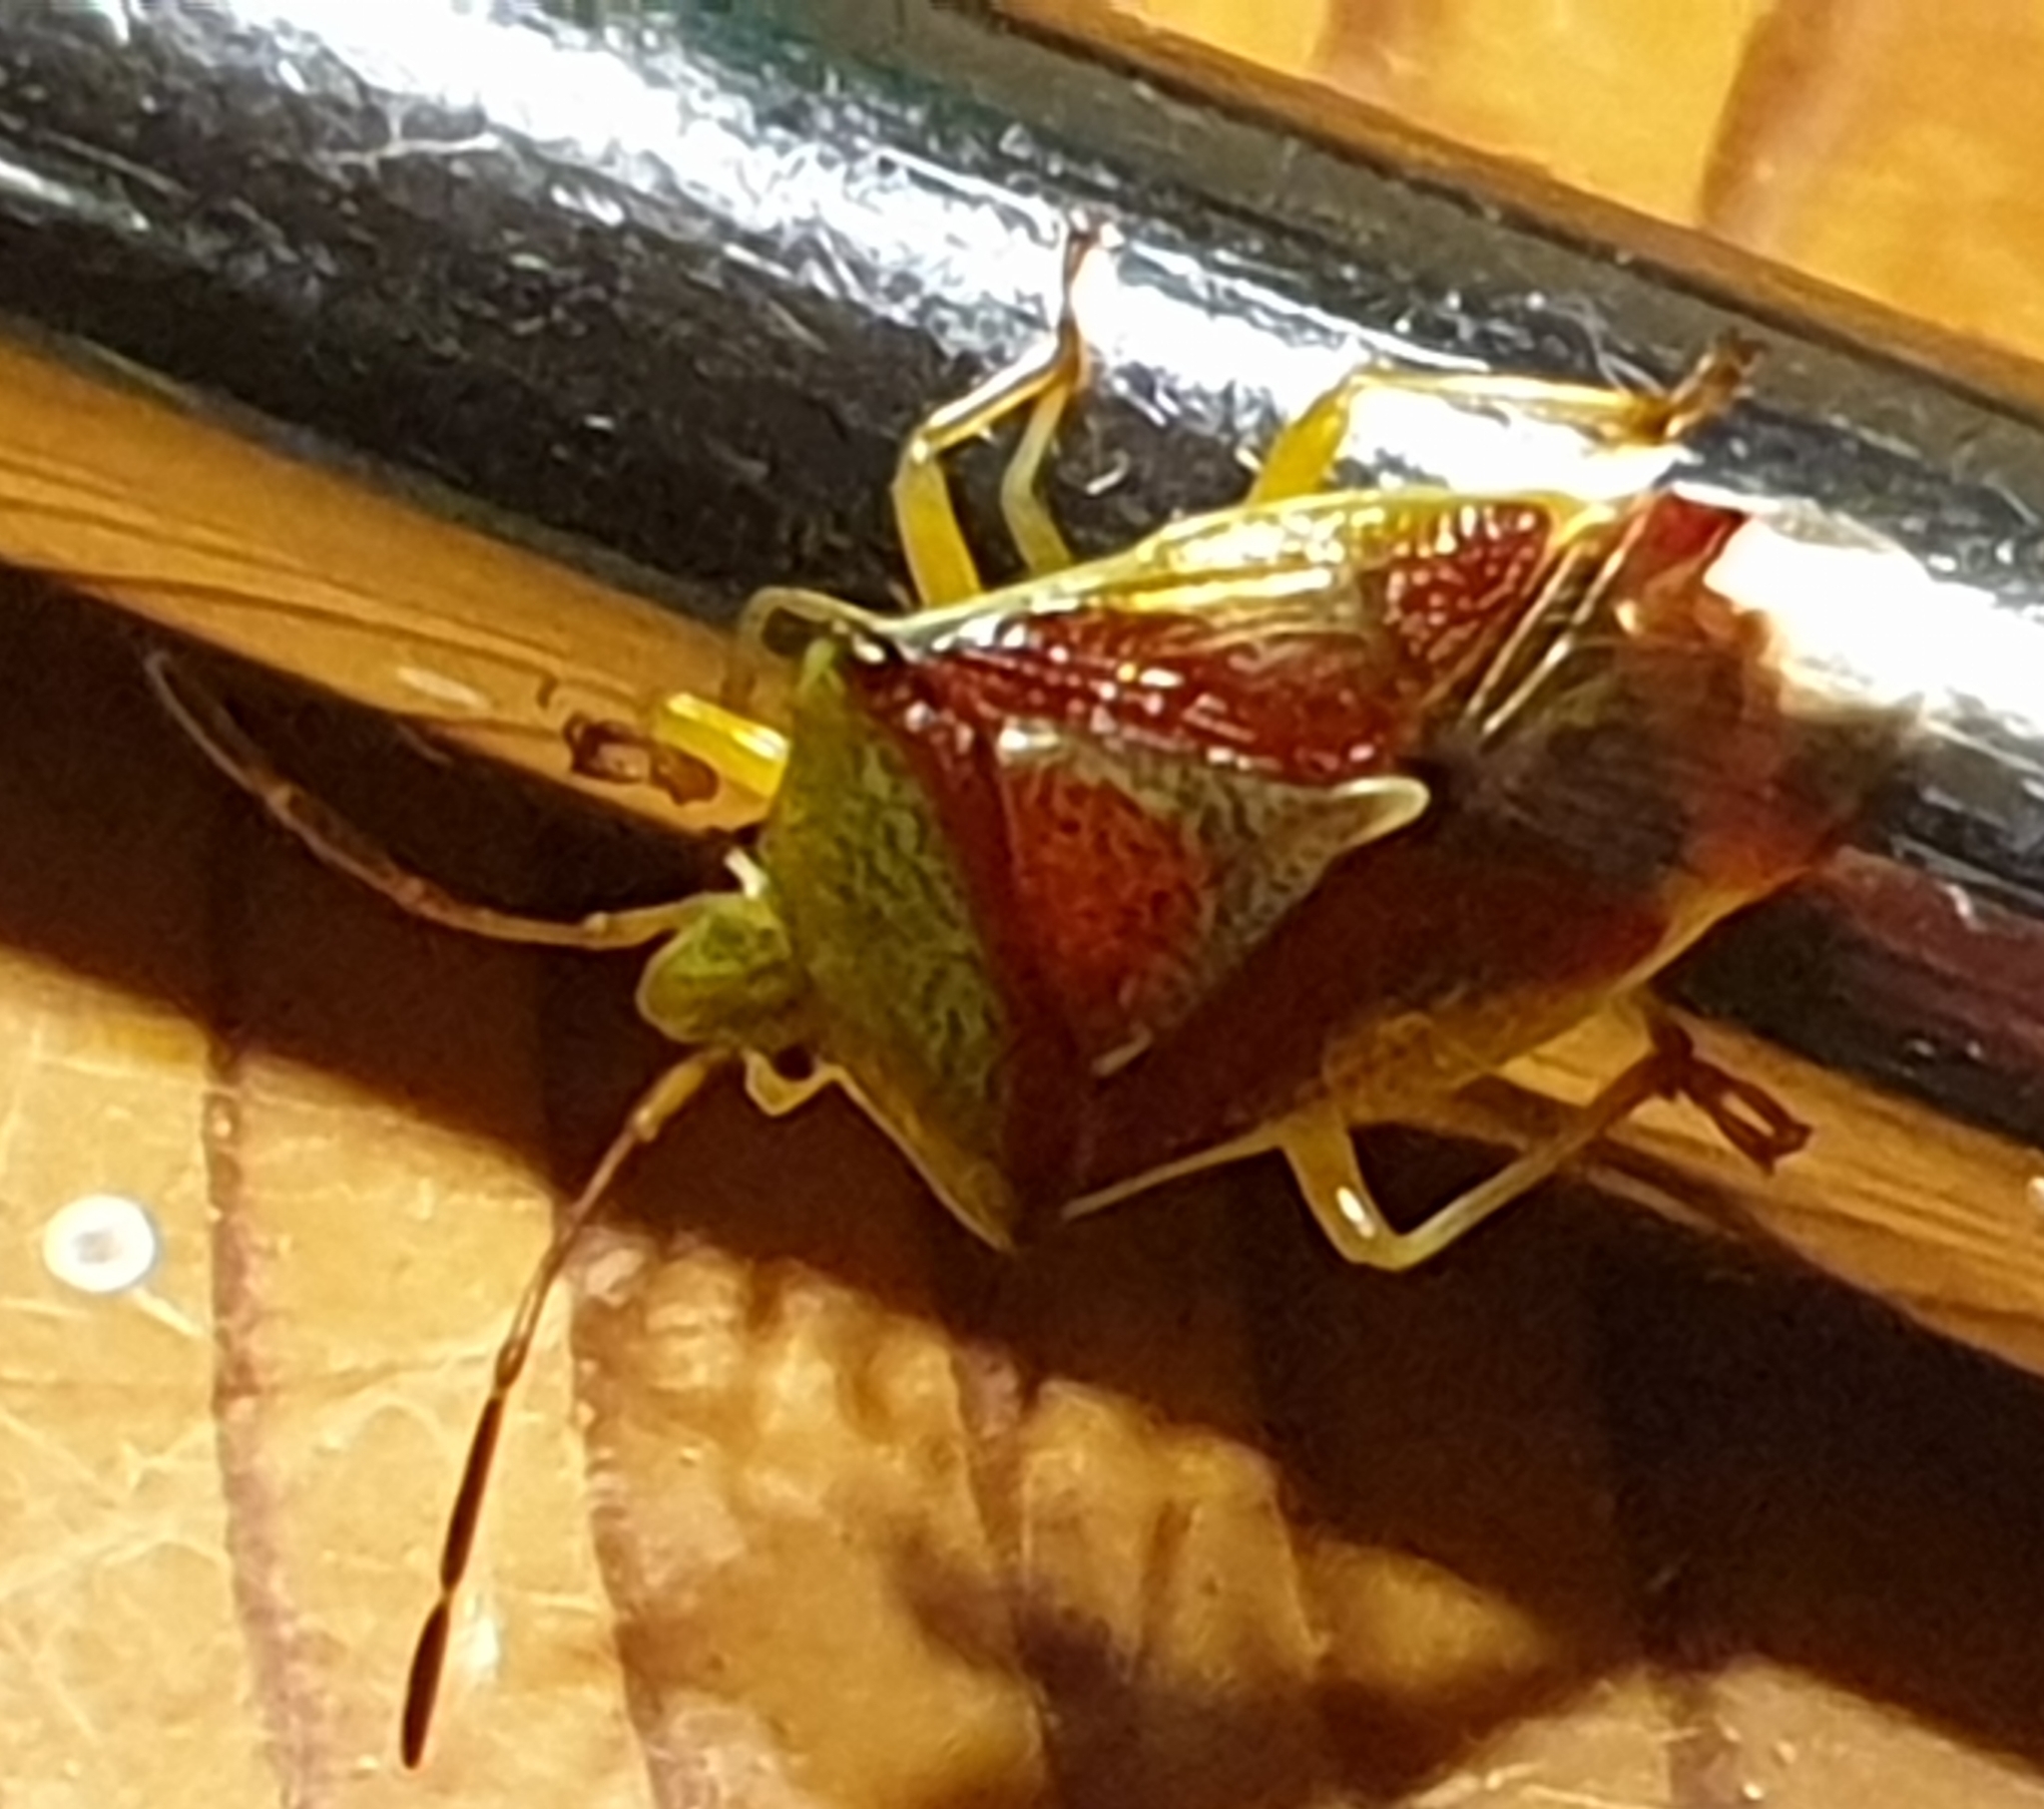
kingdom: Animalia
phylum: Arthropoda
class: Insecta
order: Hemiptera
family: Acanthosomatidae
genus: Elasmostethus
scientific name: Elasmostethus interstinctus
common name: Birch shieldbug
